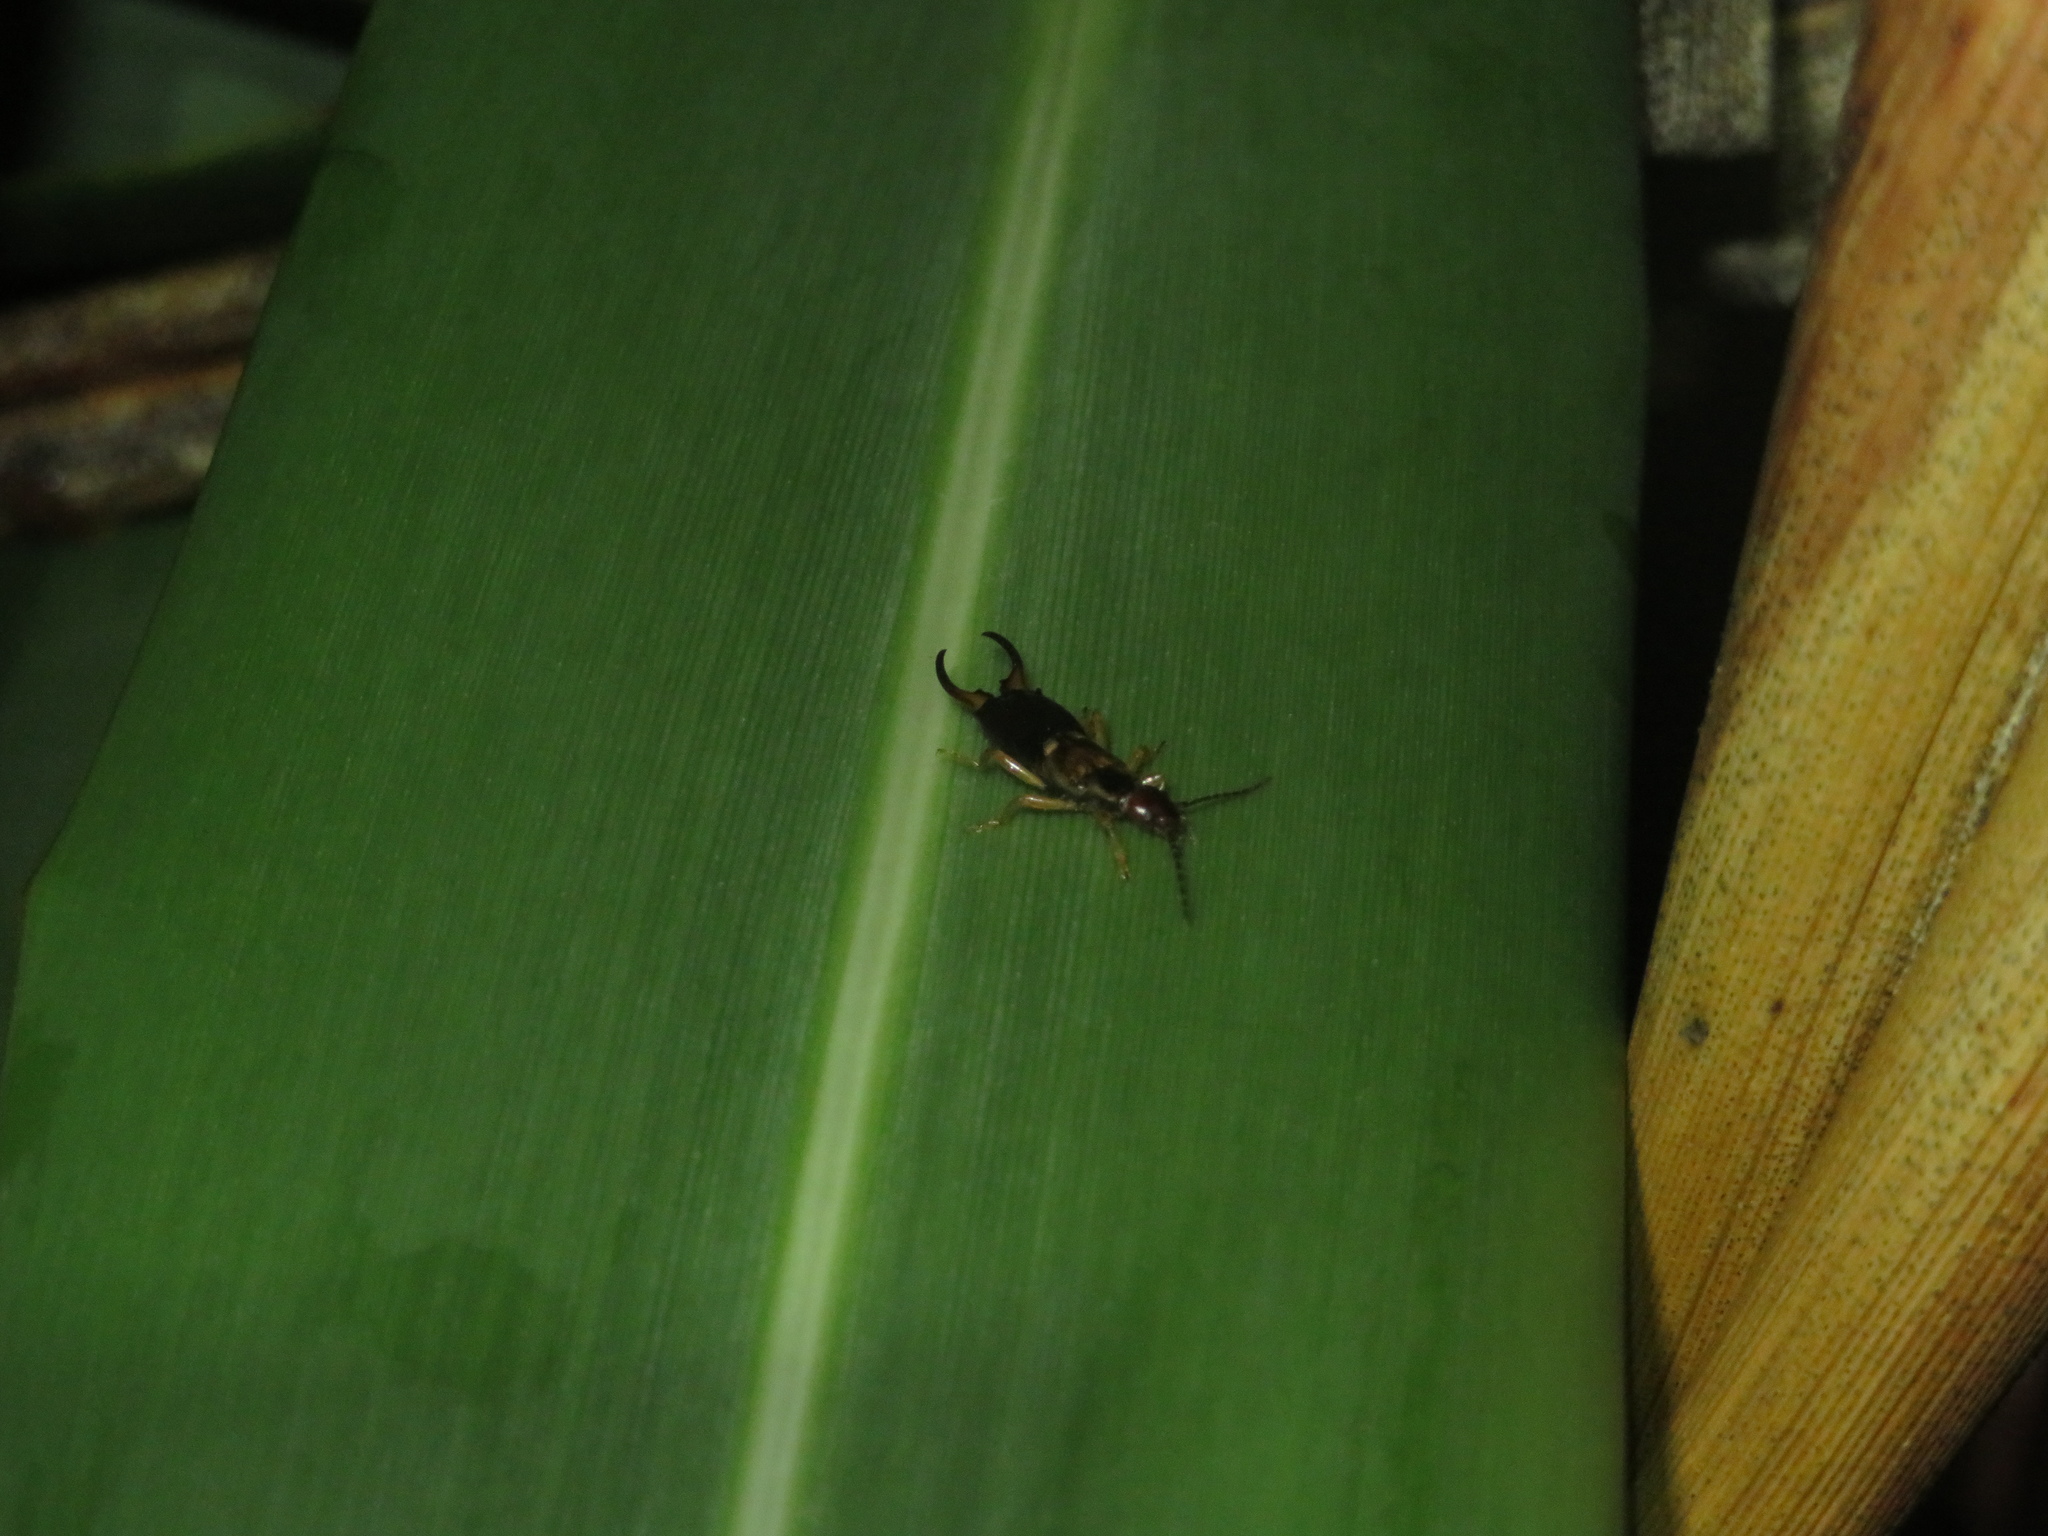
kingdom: Animalia
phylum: Arthropoda
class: Insecta
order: Dermaptera
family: Forficulidae
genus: Forficula
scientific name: Forficula
